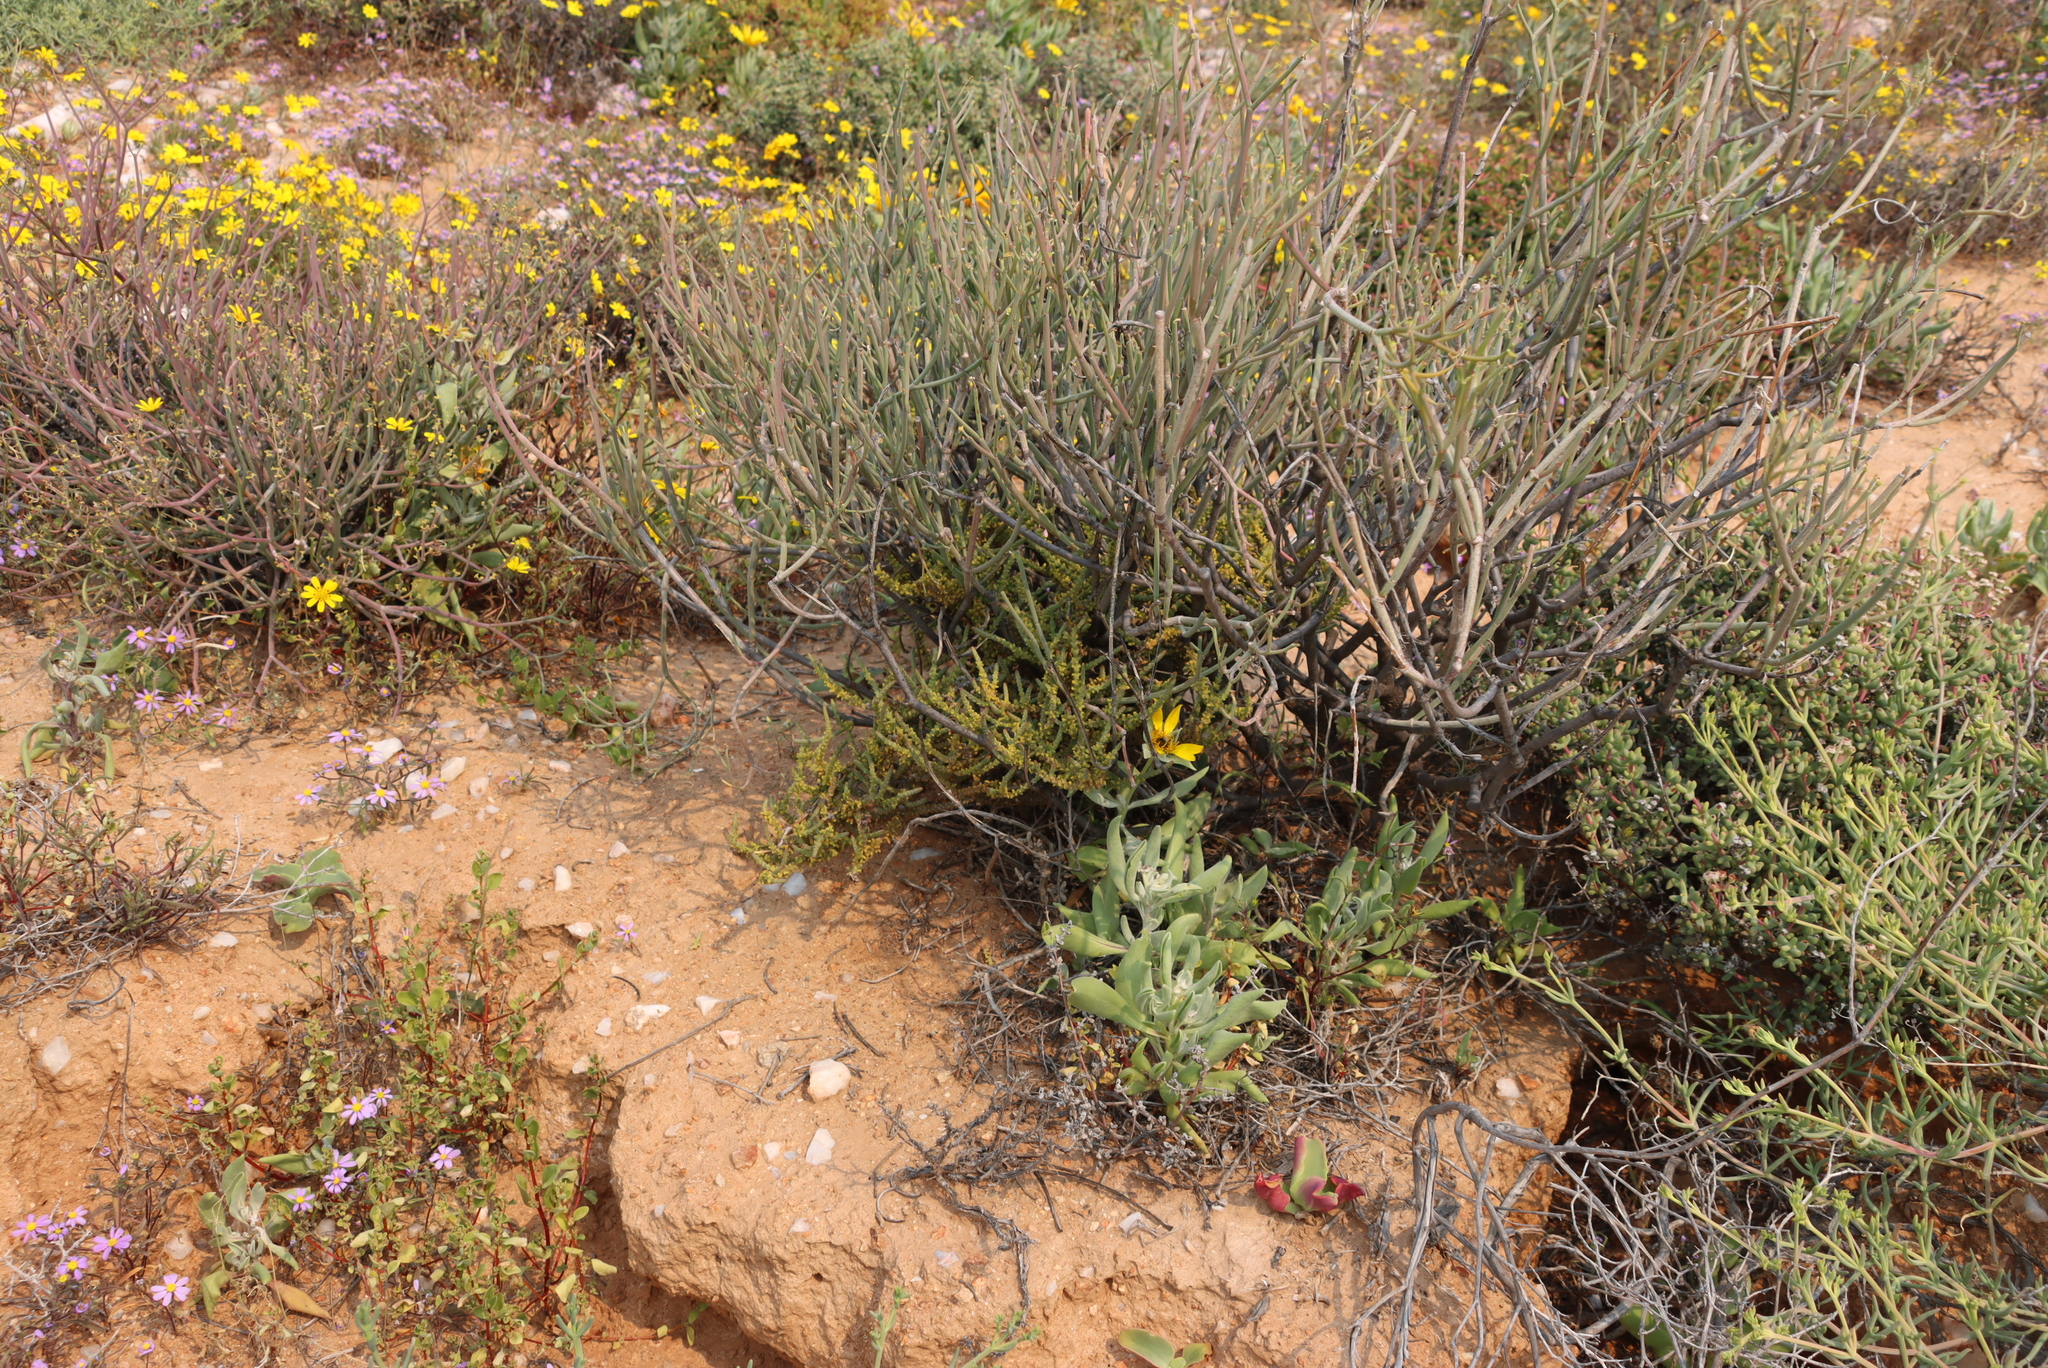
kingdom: Plantae
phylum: Tracheophyta
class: Magnoliopsida
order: Saxifragales
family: Crassulaceae
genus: Crassula
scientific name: Crassula muscosa
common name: Toy-cypress
